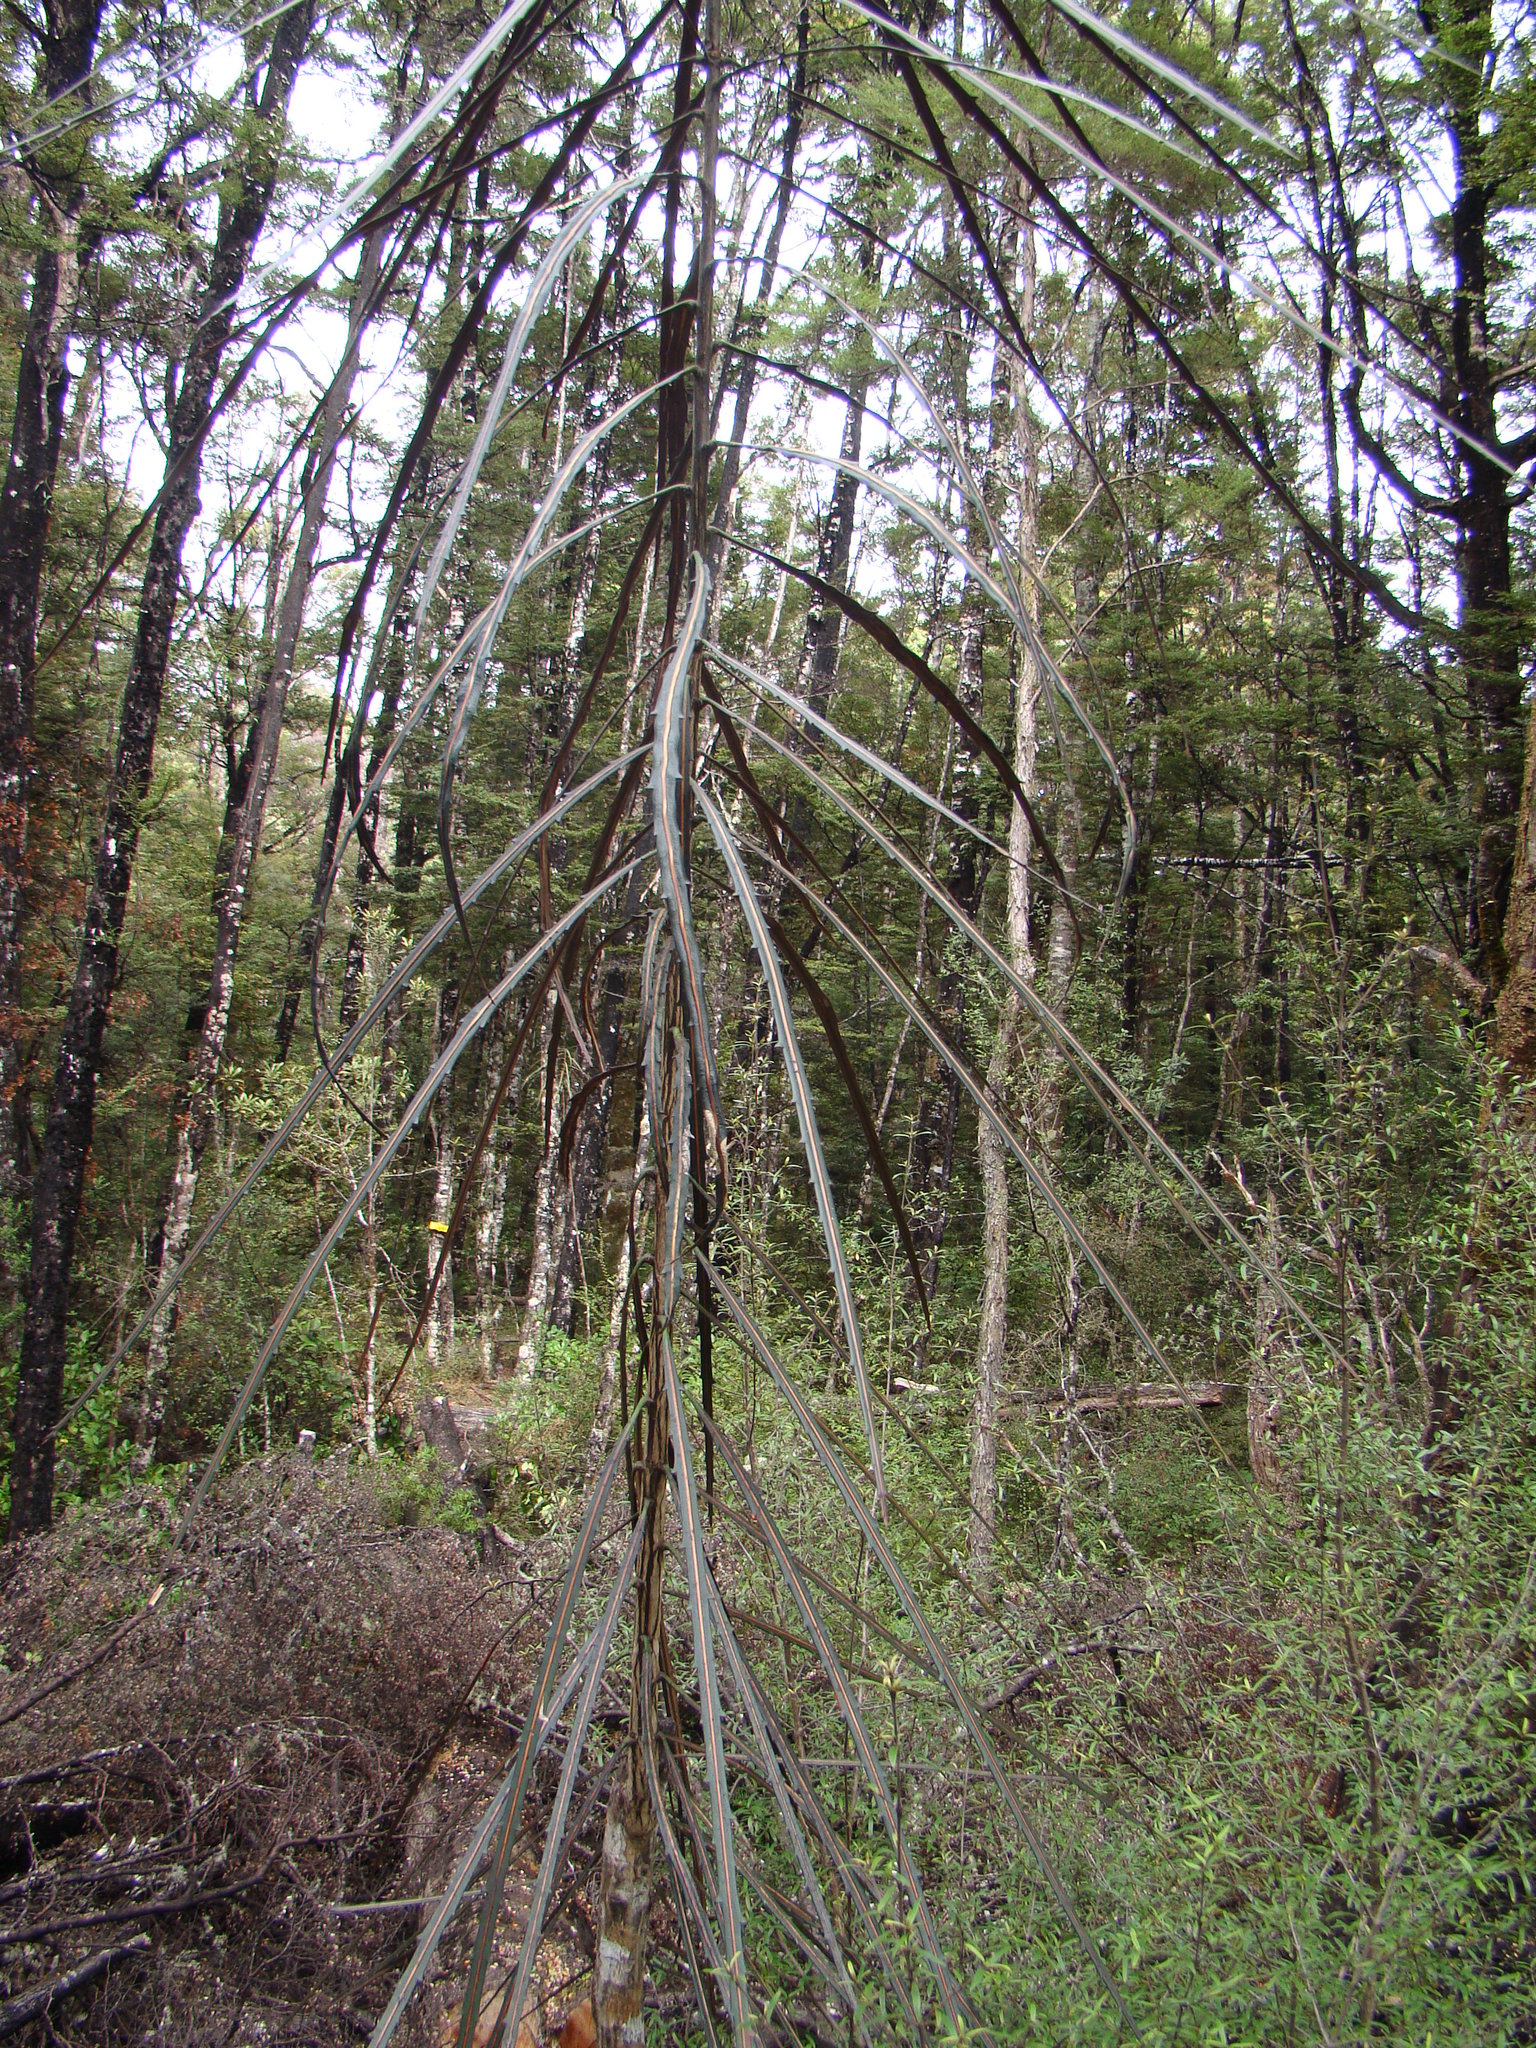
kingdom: Plantae
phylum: Tracheophyta
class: Magnoliopsida
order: Apiales
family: Araliaceae
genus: Pseudopanax
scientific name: Pseudopanax crassifolius
